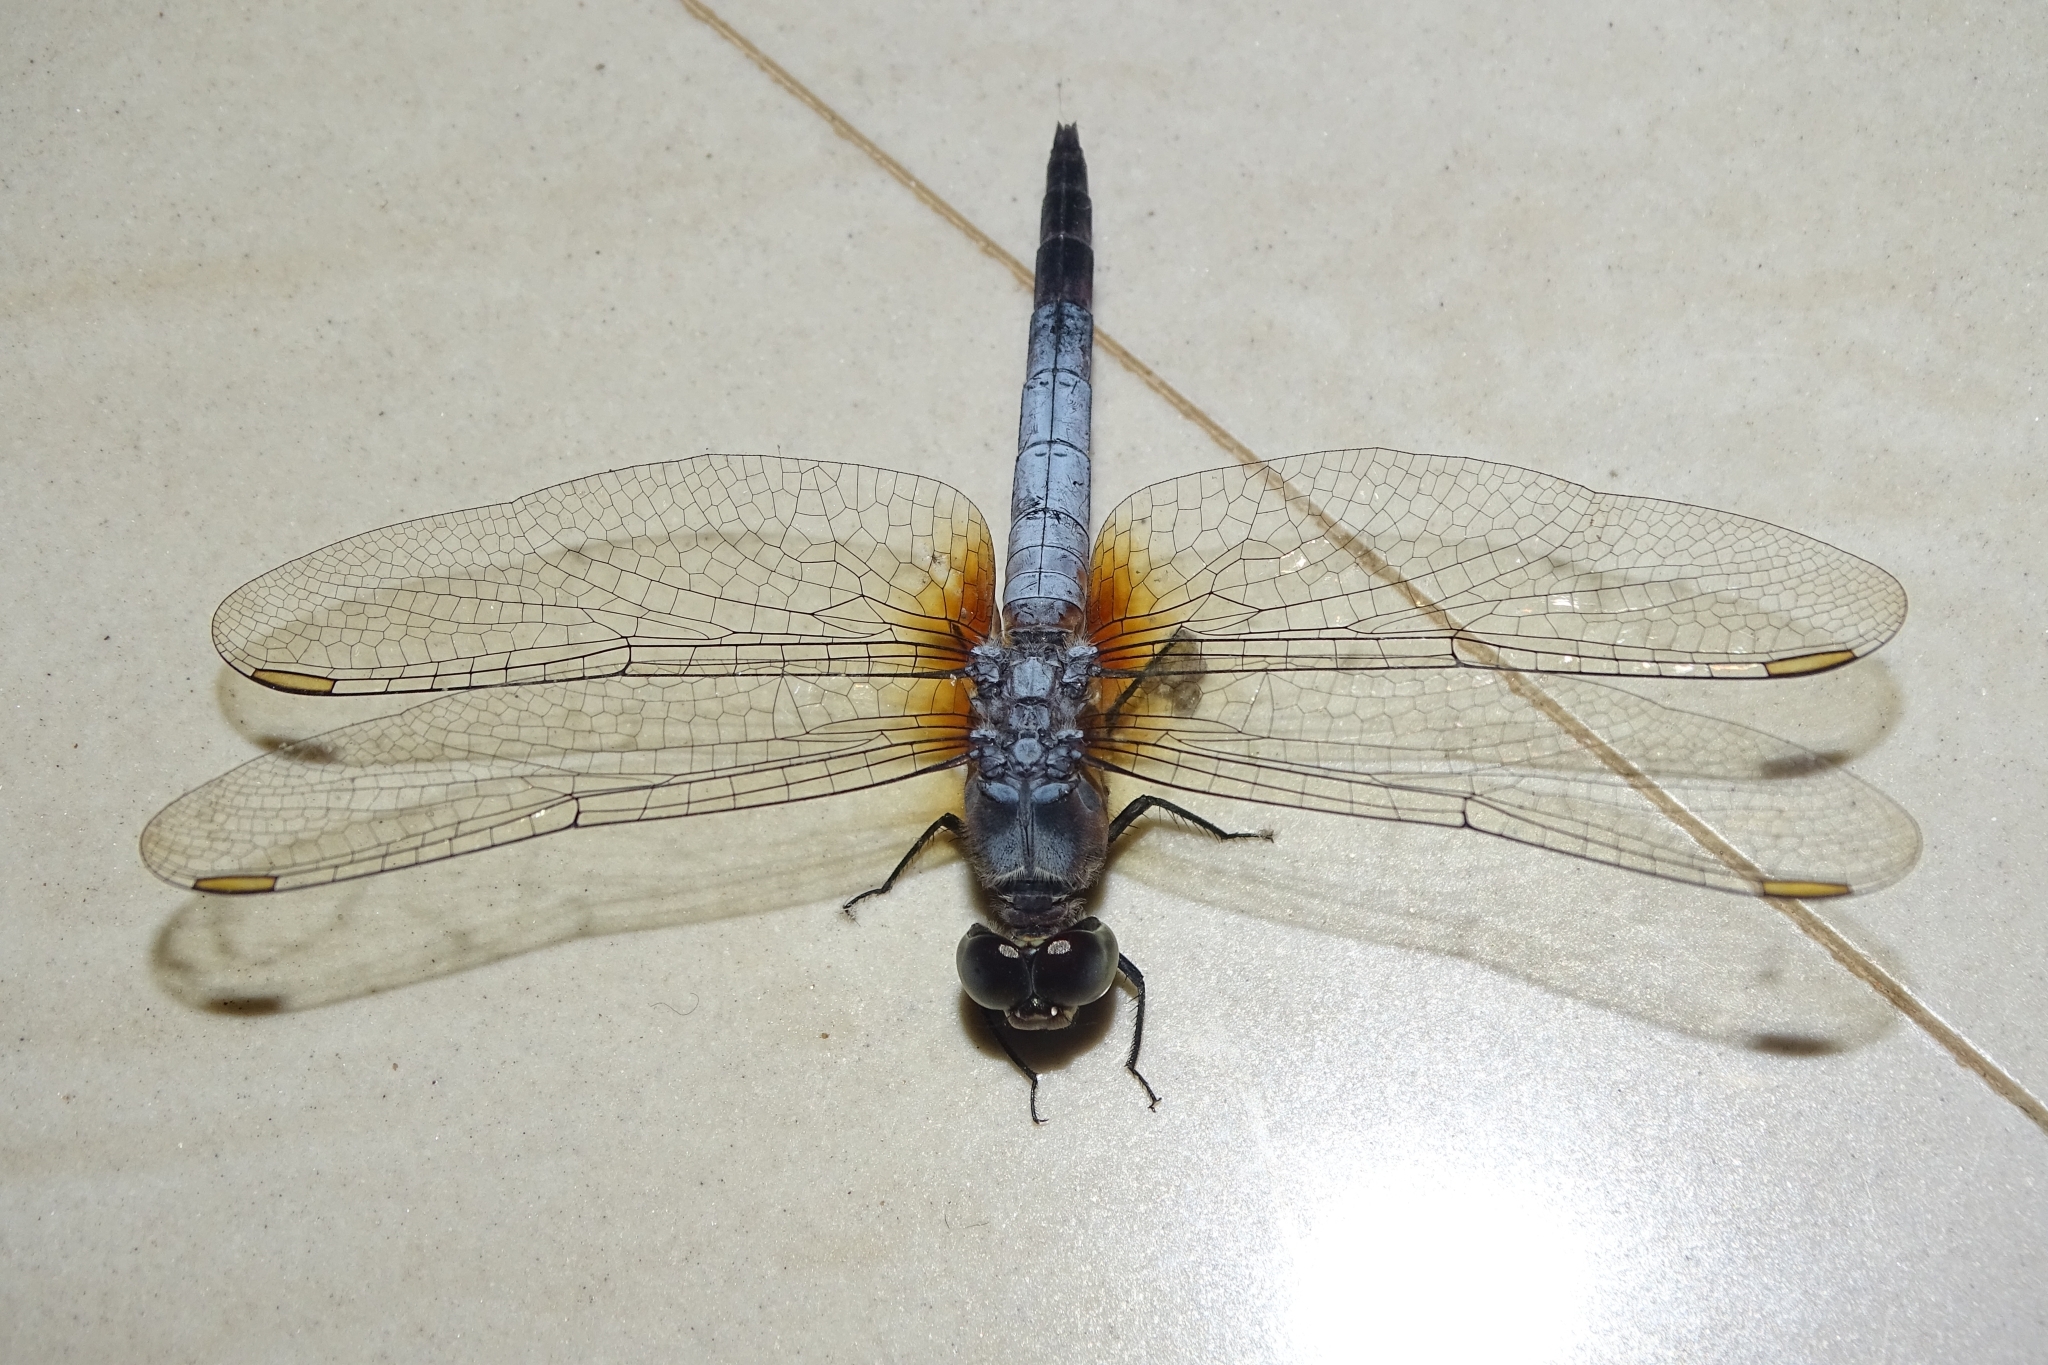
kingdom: Animalia
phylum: Arthropoda
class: Insecta
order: Odonata
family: Libellulidae
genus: Brachydiplax
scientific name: Brachydiplax chalybea
